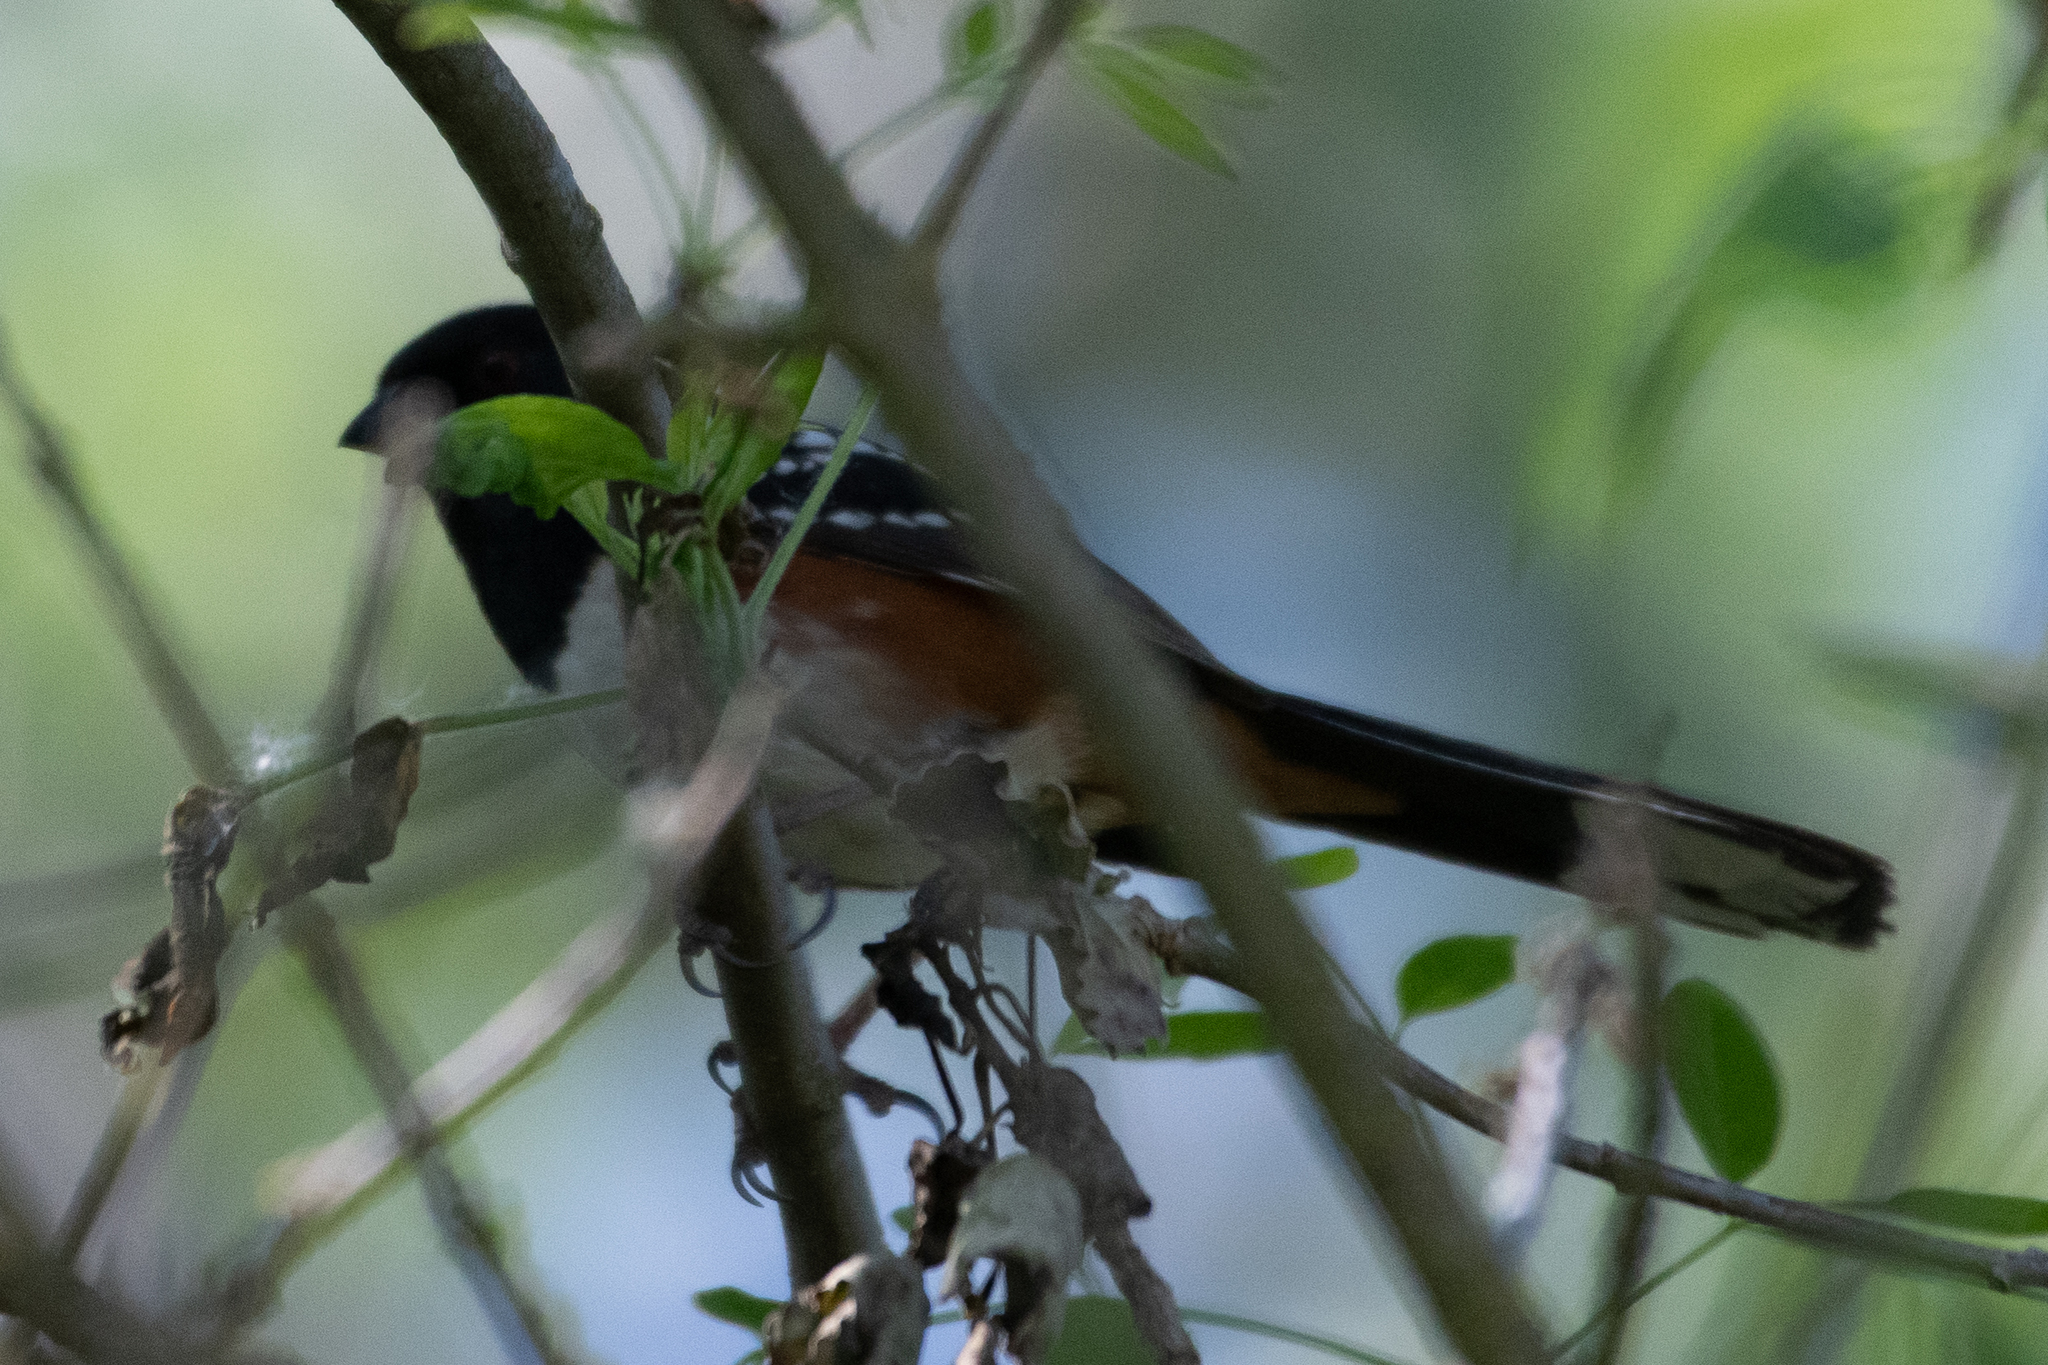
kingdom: Animalia
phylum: Chordata
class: Aves
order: Passeriformes
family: Passerellidae
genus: Pipilo
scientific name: Pipilo maculatus
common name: Spotted towhee
